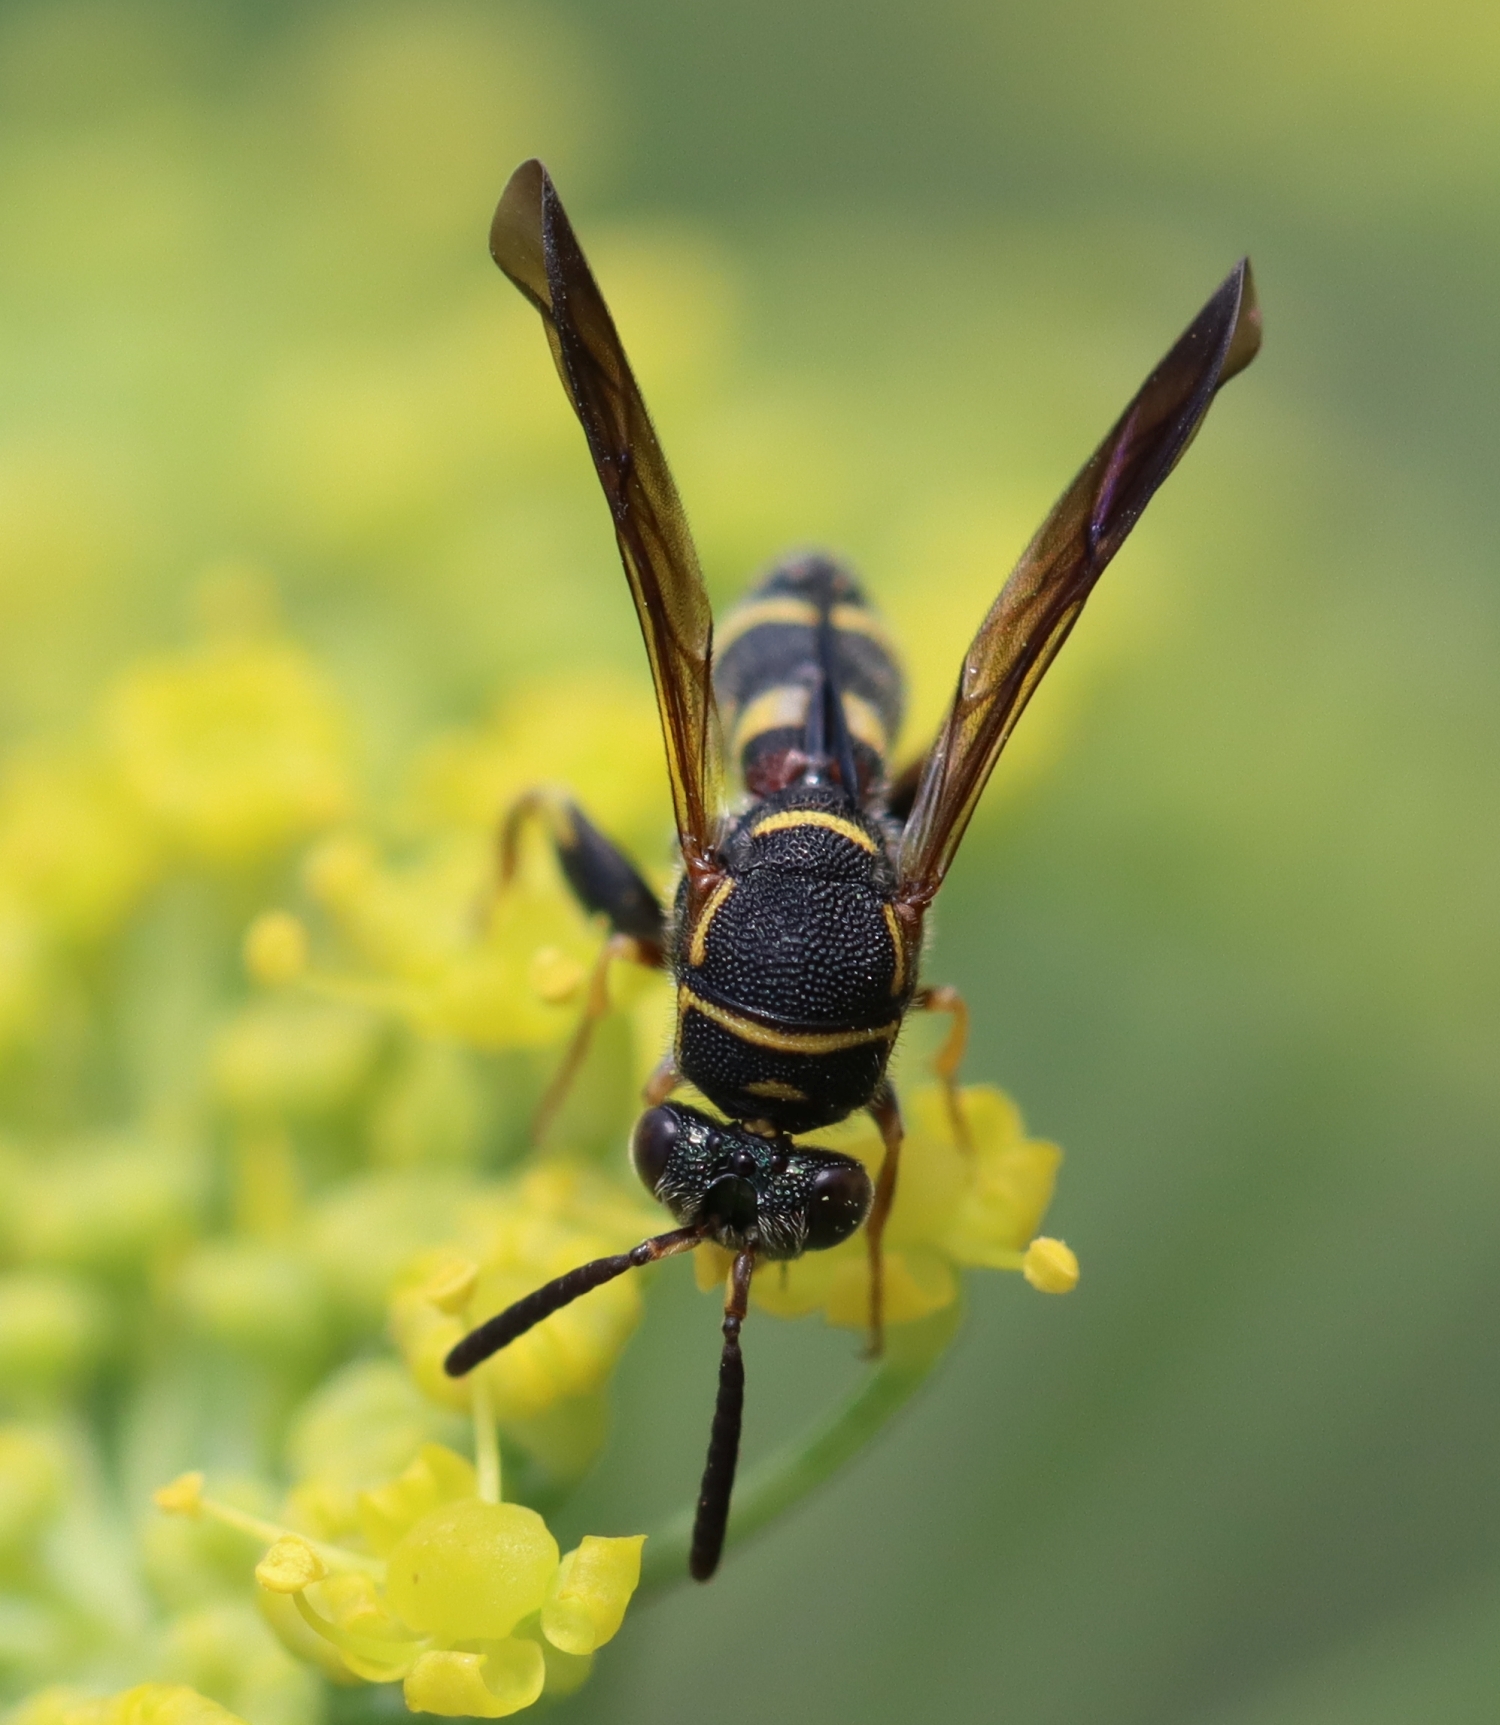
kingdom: Animalia
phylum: Arthropoda
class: Insecta
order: Hymenoptera
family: Leucospidae
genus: Leucospis
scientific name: Leucospis affinis
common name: Wasp
